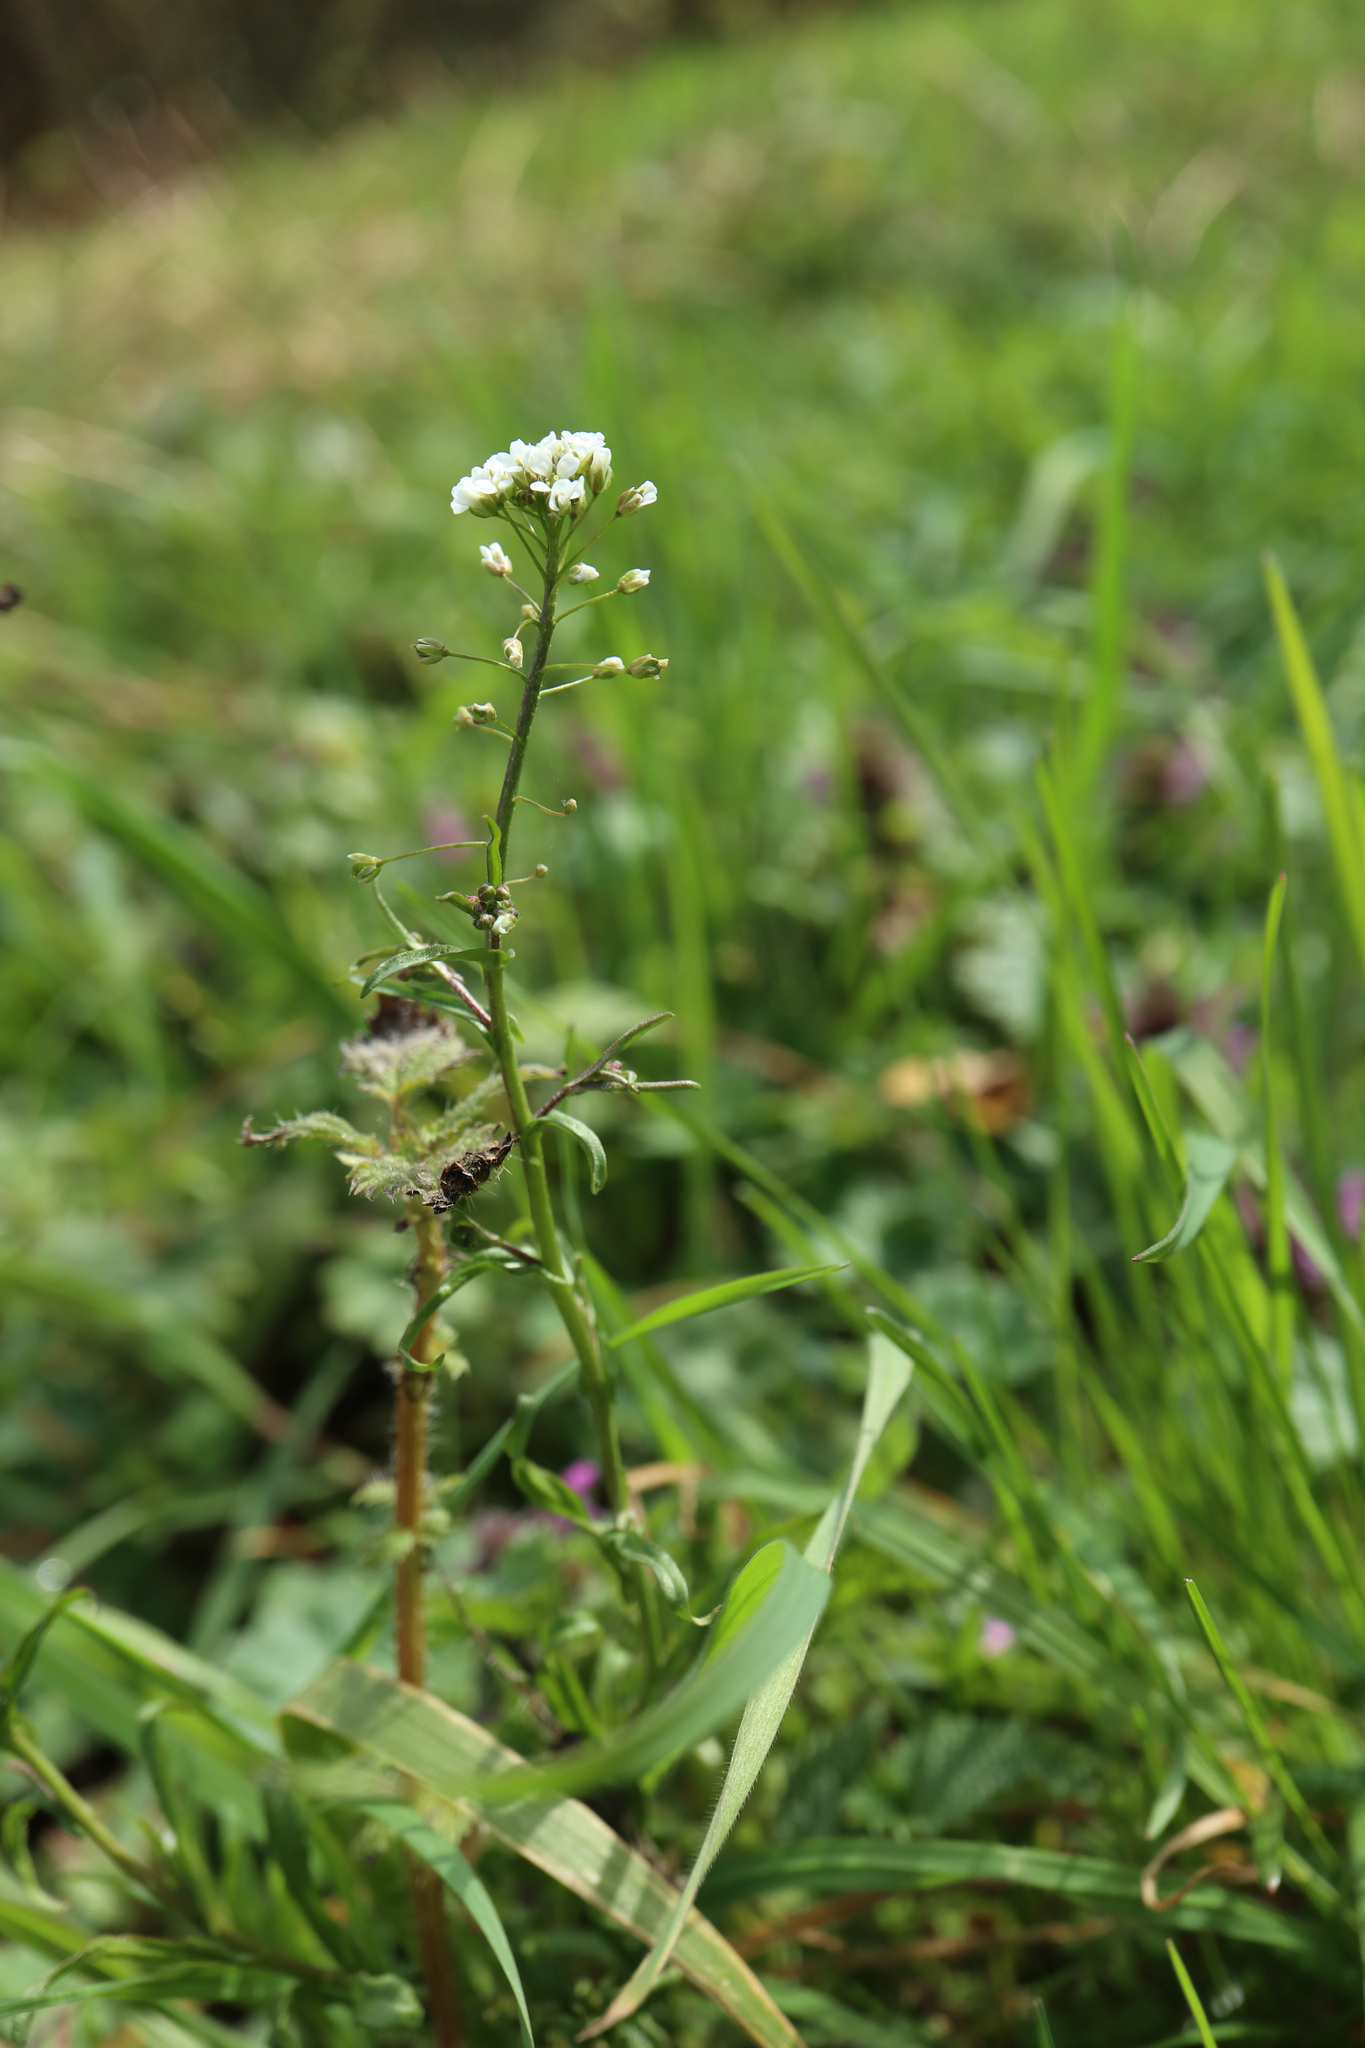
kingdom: Plantae
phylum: Tracheophyta
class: Magnoliopsida
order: Brassicales
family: Brassicaceae
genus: Capsella
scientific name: Capsella bursa-pastoris
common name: Shepherd's purse
